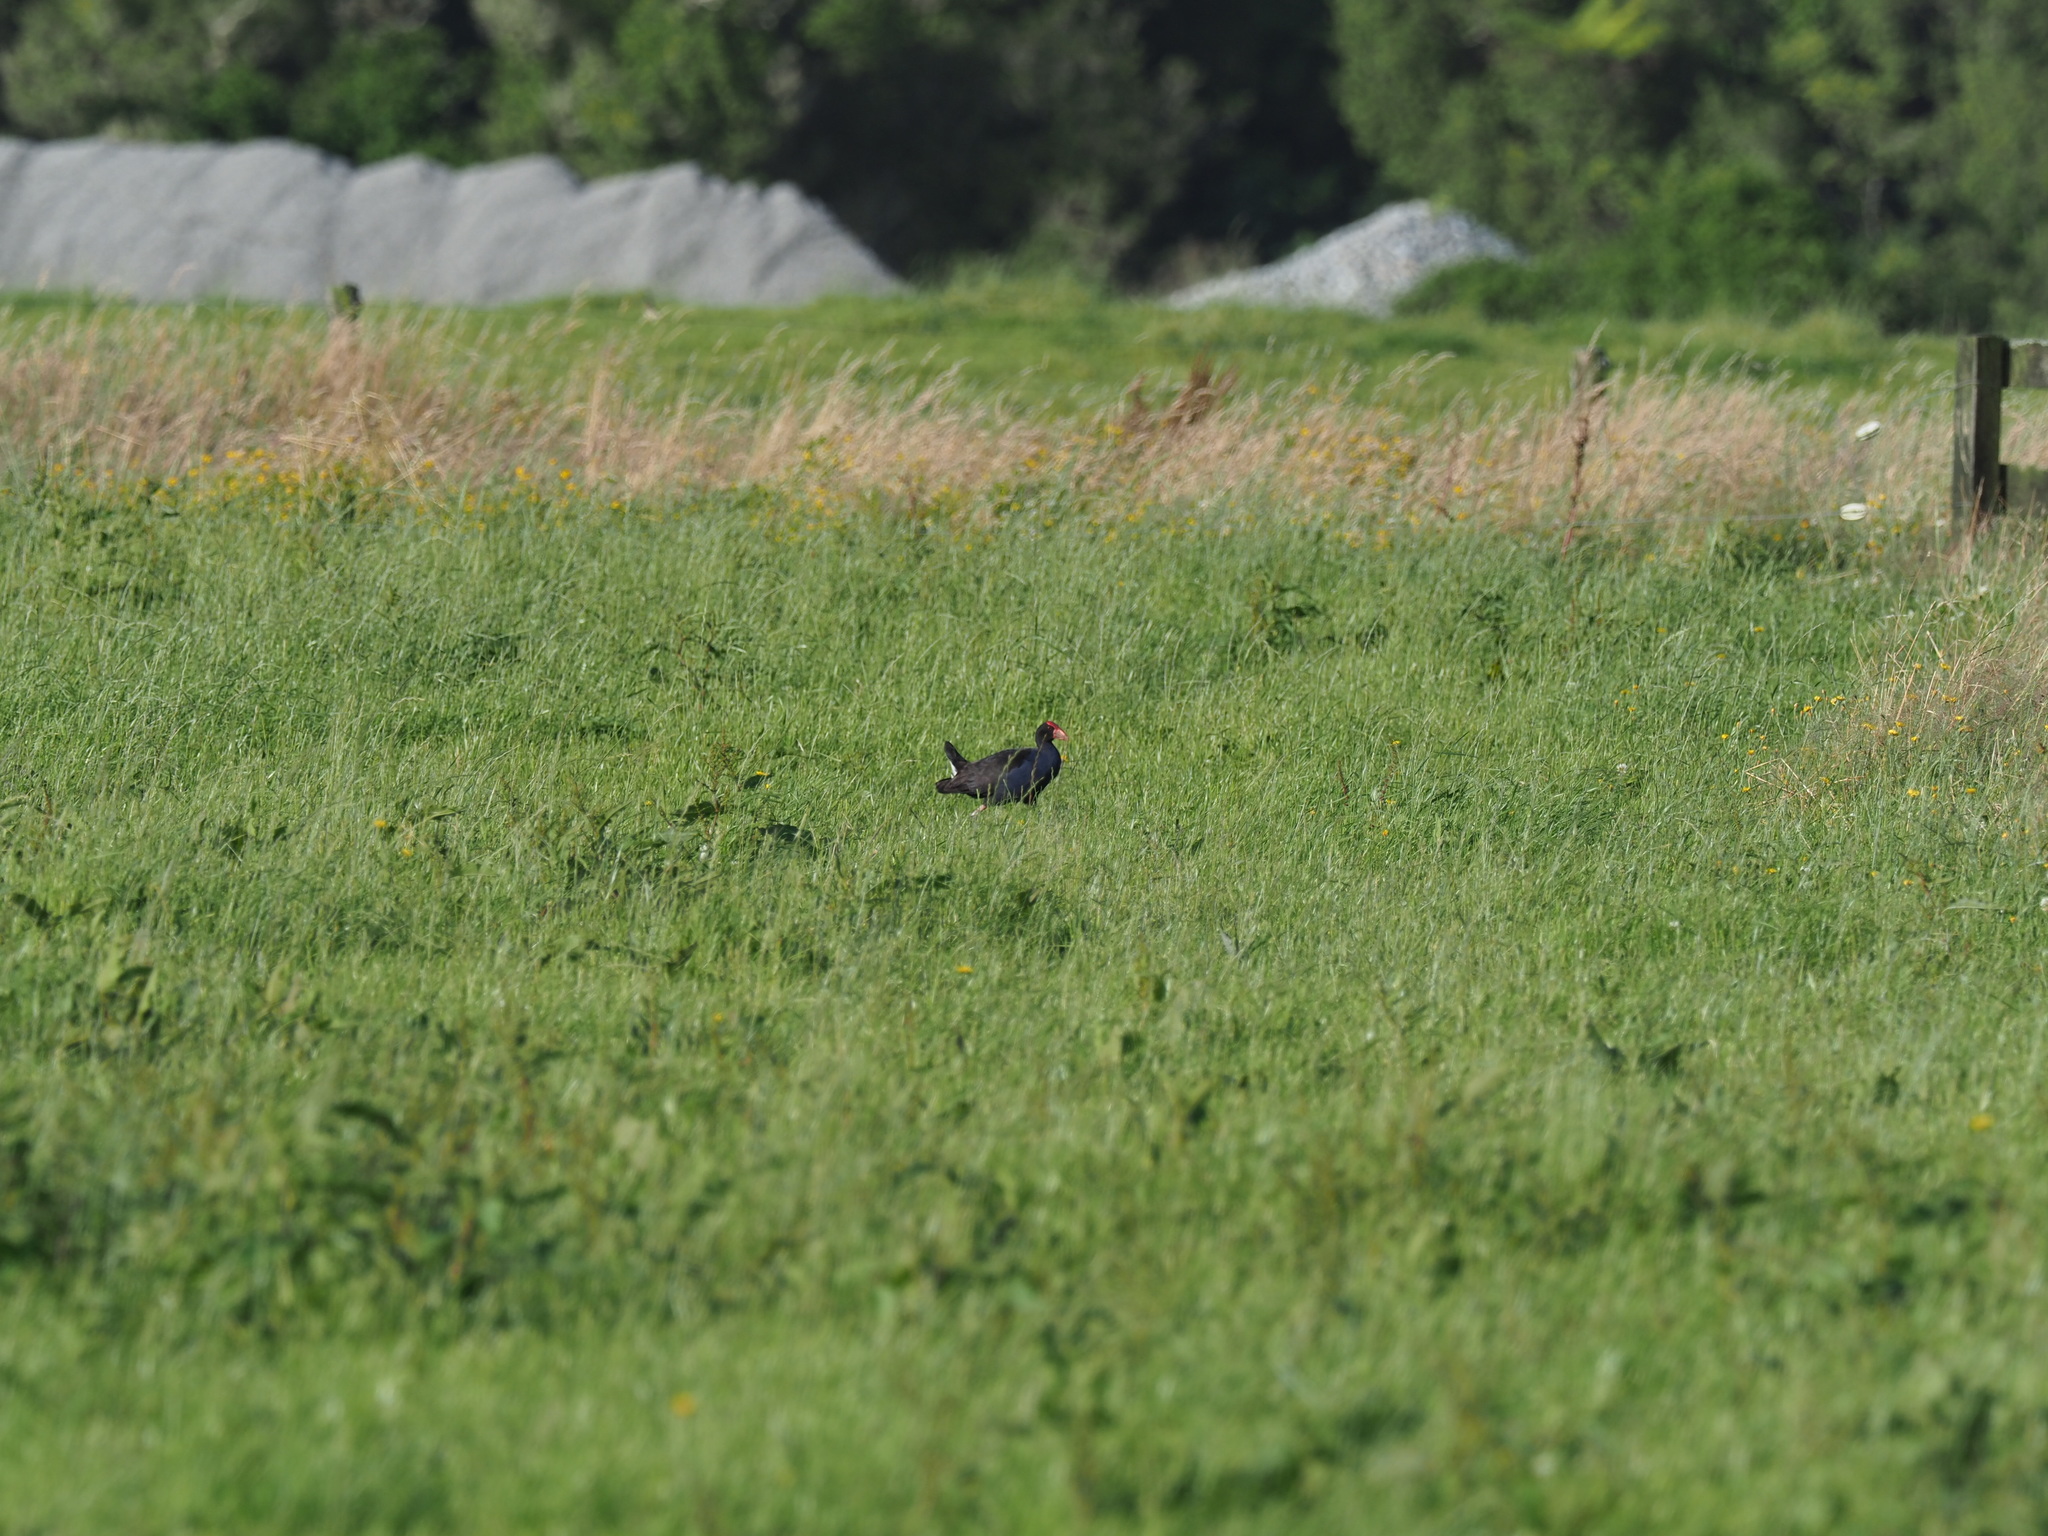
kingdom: Animalia
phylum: Chordata
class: Aves
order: Gruiformes
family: Rallidae
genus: Porphyrio
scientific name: Porphyrio melanotus
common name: Australasian swamphen
